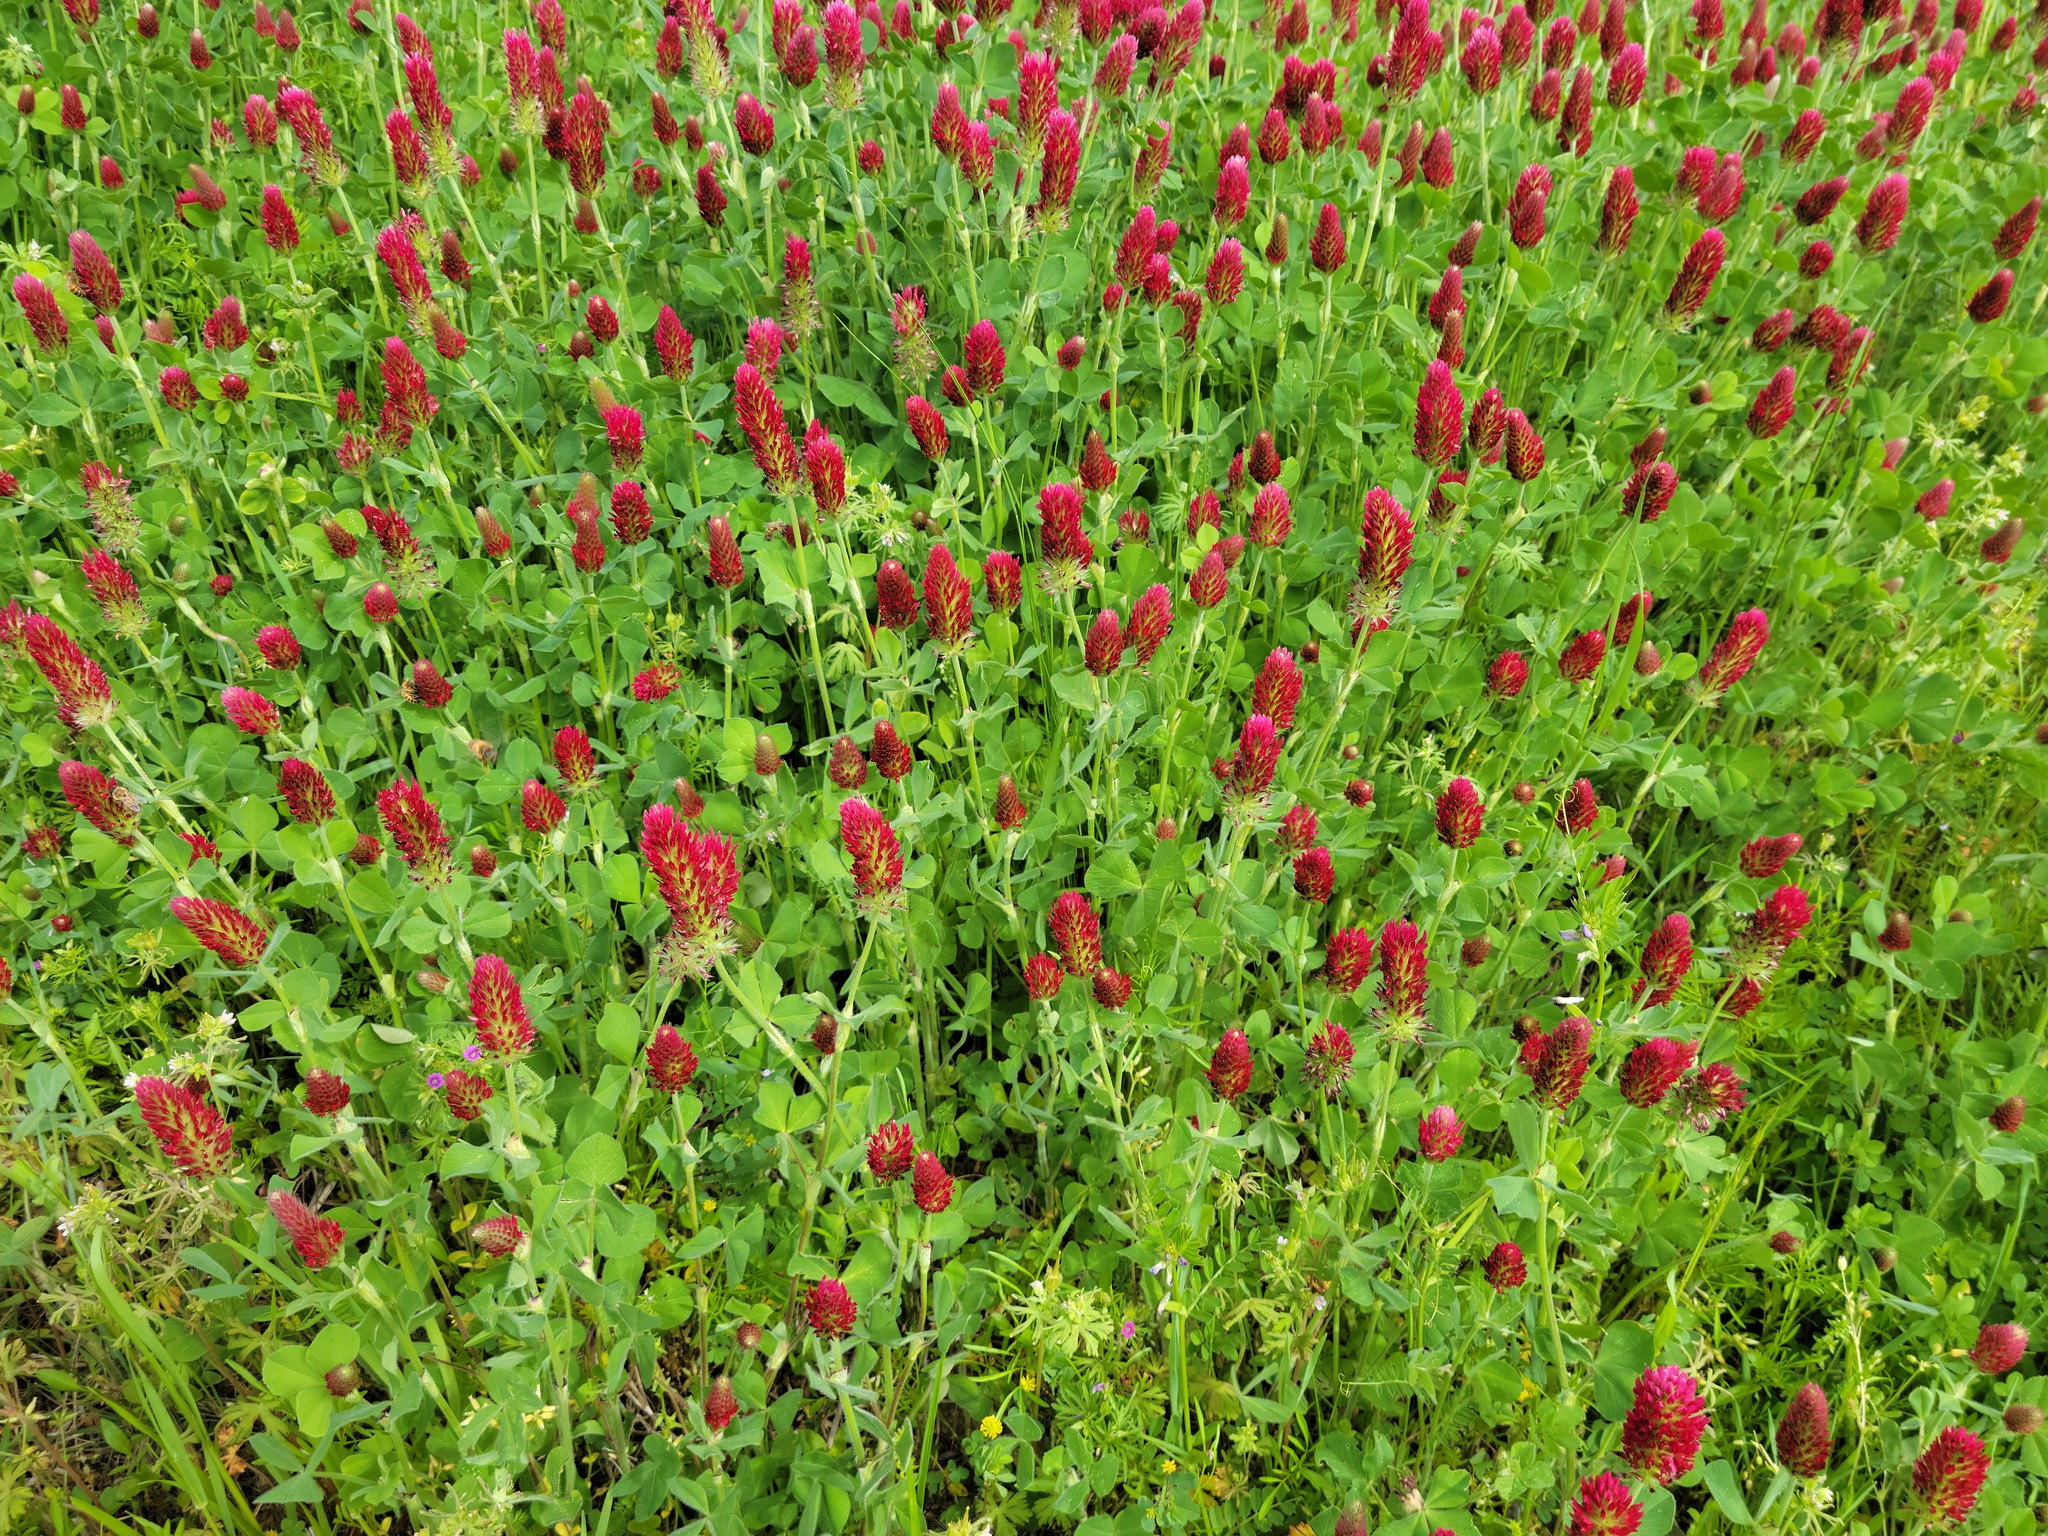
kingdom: Plantae
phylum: Tracheophyta
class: Magnoliopsida
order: Fabales
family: Fabaceae
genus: Trifolium
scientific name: Trifolium incarnatum
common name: Crimson clover
